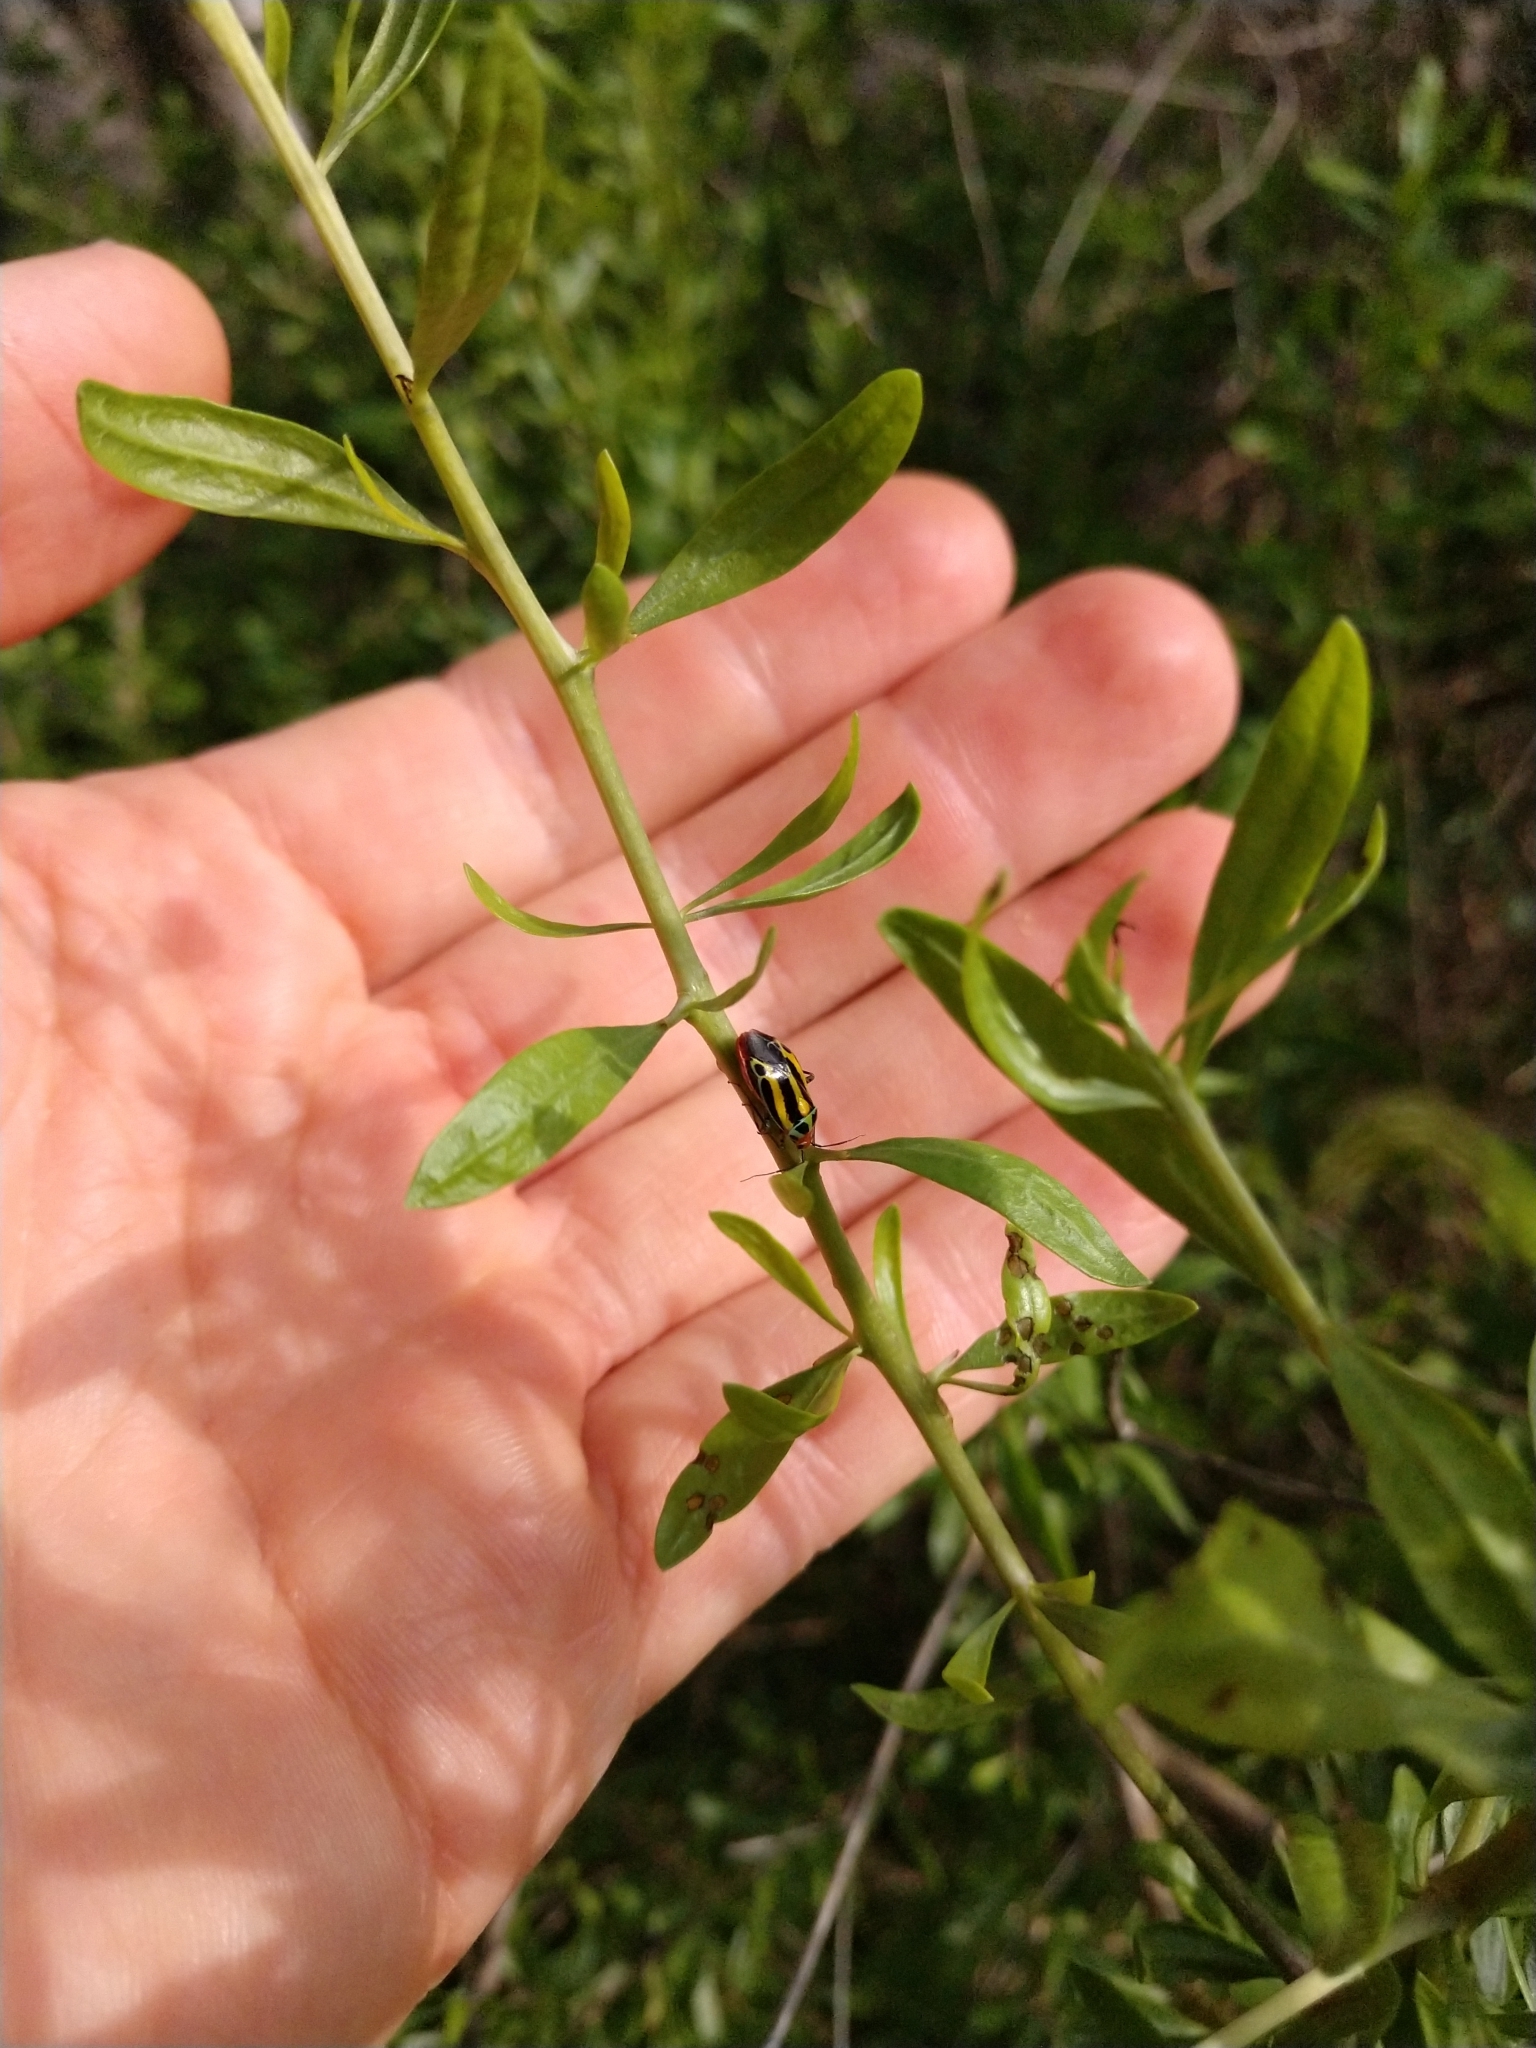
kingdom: Animalia
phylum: Arthropoda
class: Insecta
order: Hemiptera
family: Miridae
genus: Poecilocapsus
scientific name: Poecilocapsus lineatus
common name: Four-lined plant bug
